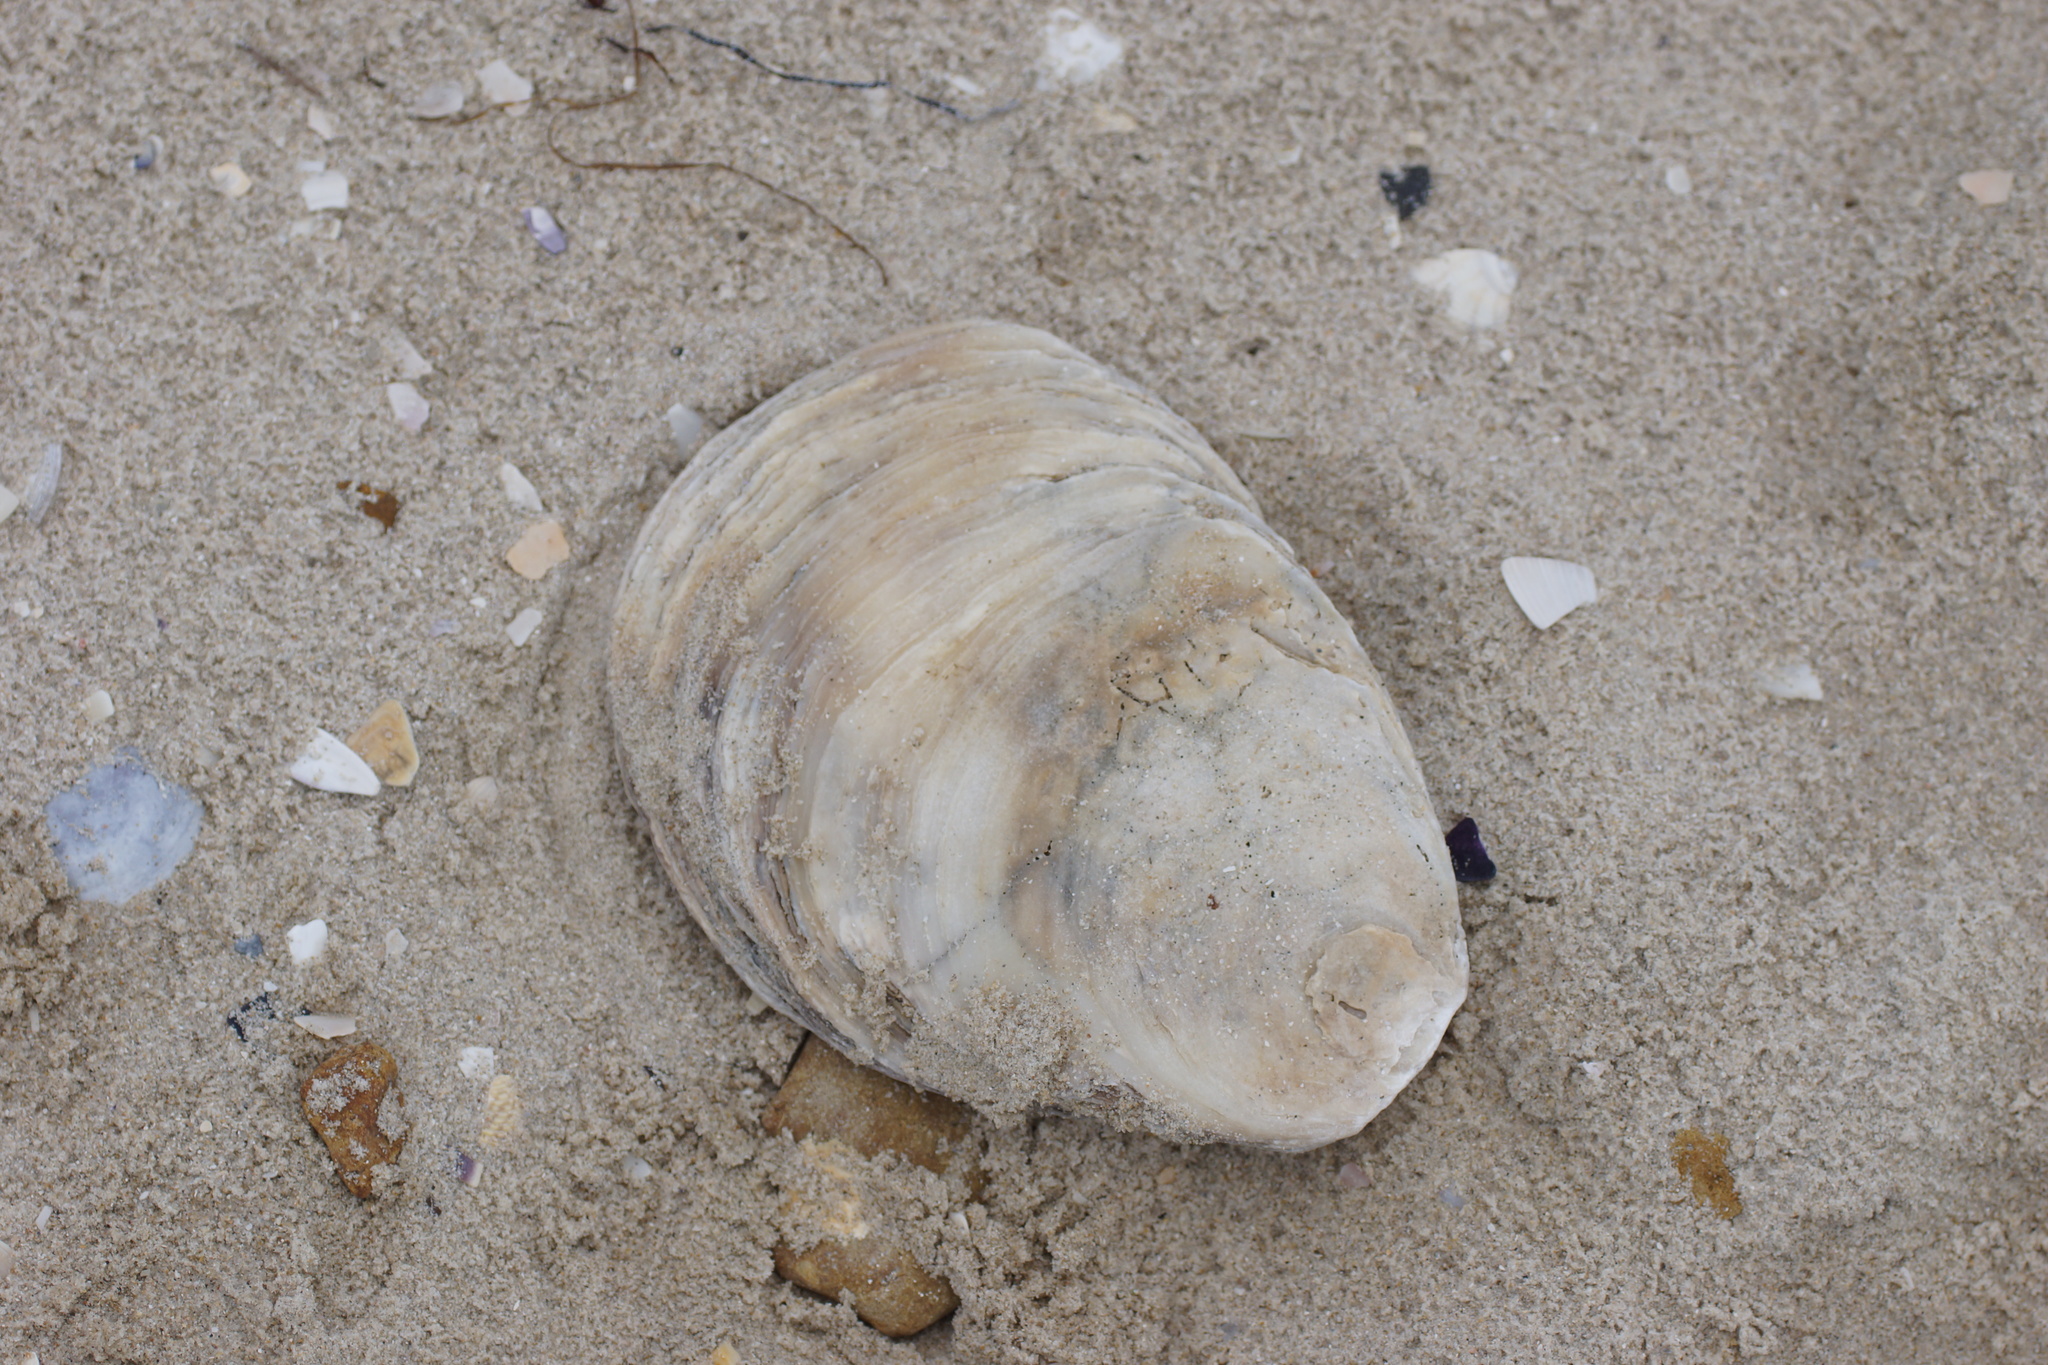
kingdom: Animalia
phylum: Mollusca
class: Bivalvia
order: Ostreida
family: Ostreidae
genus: Ostrea
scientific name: Ostrea angasi
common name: Angasi oyster
